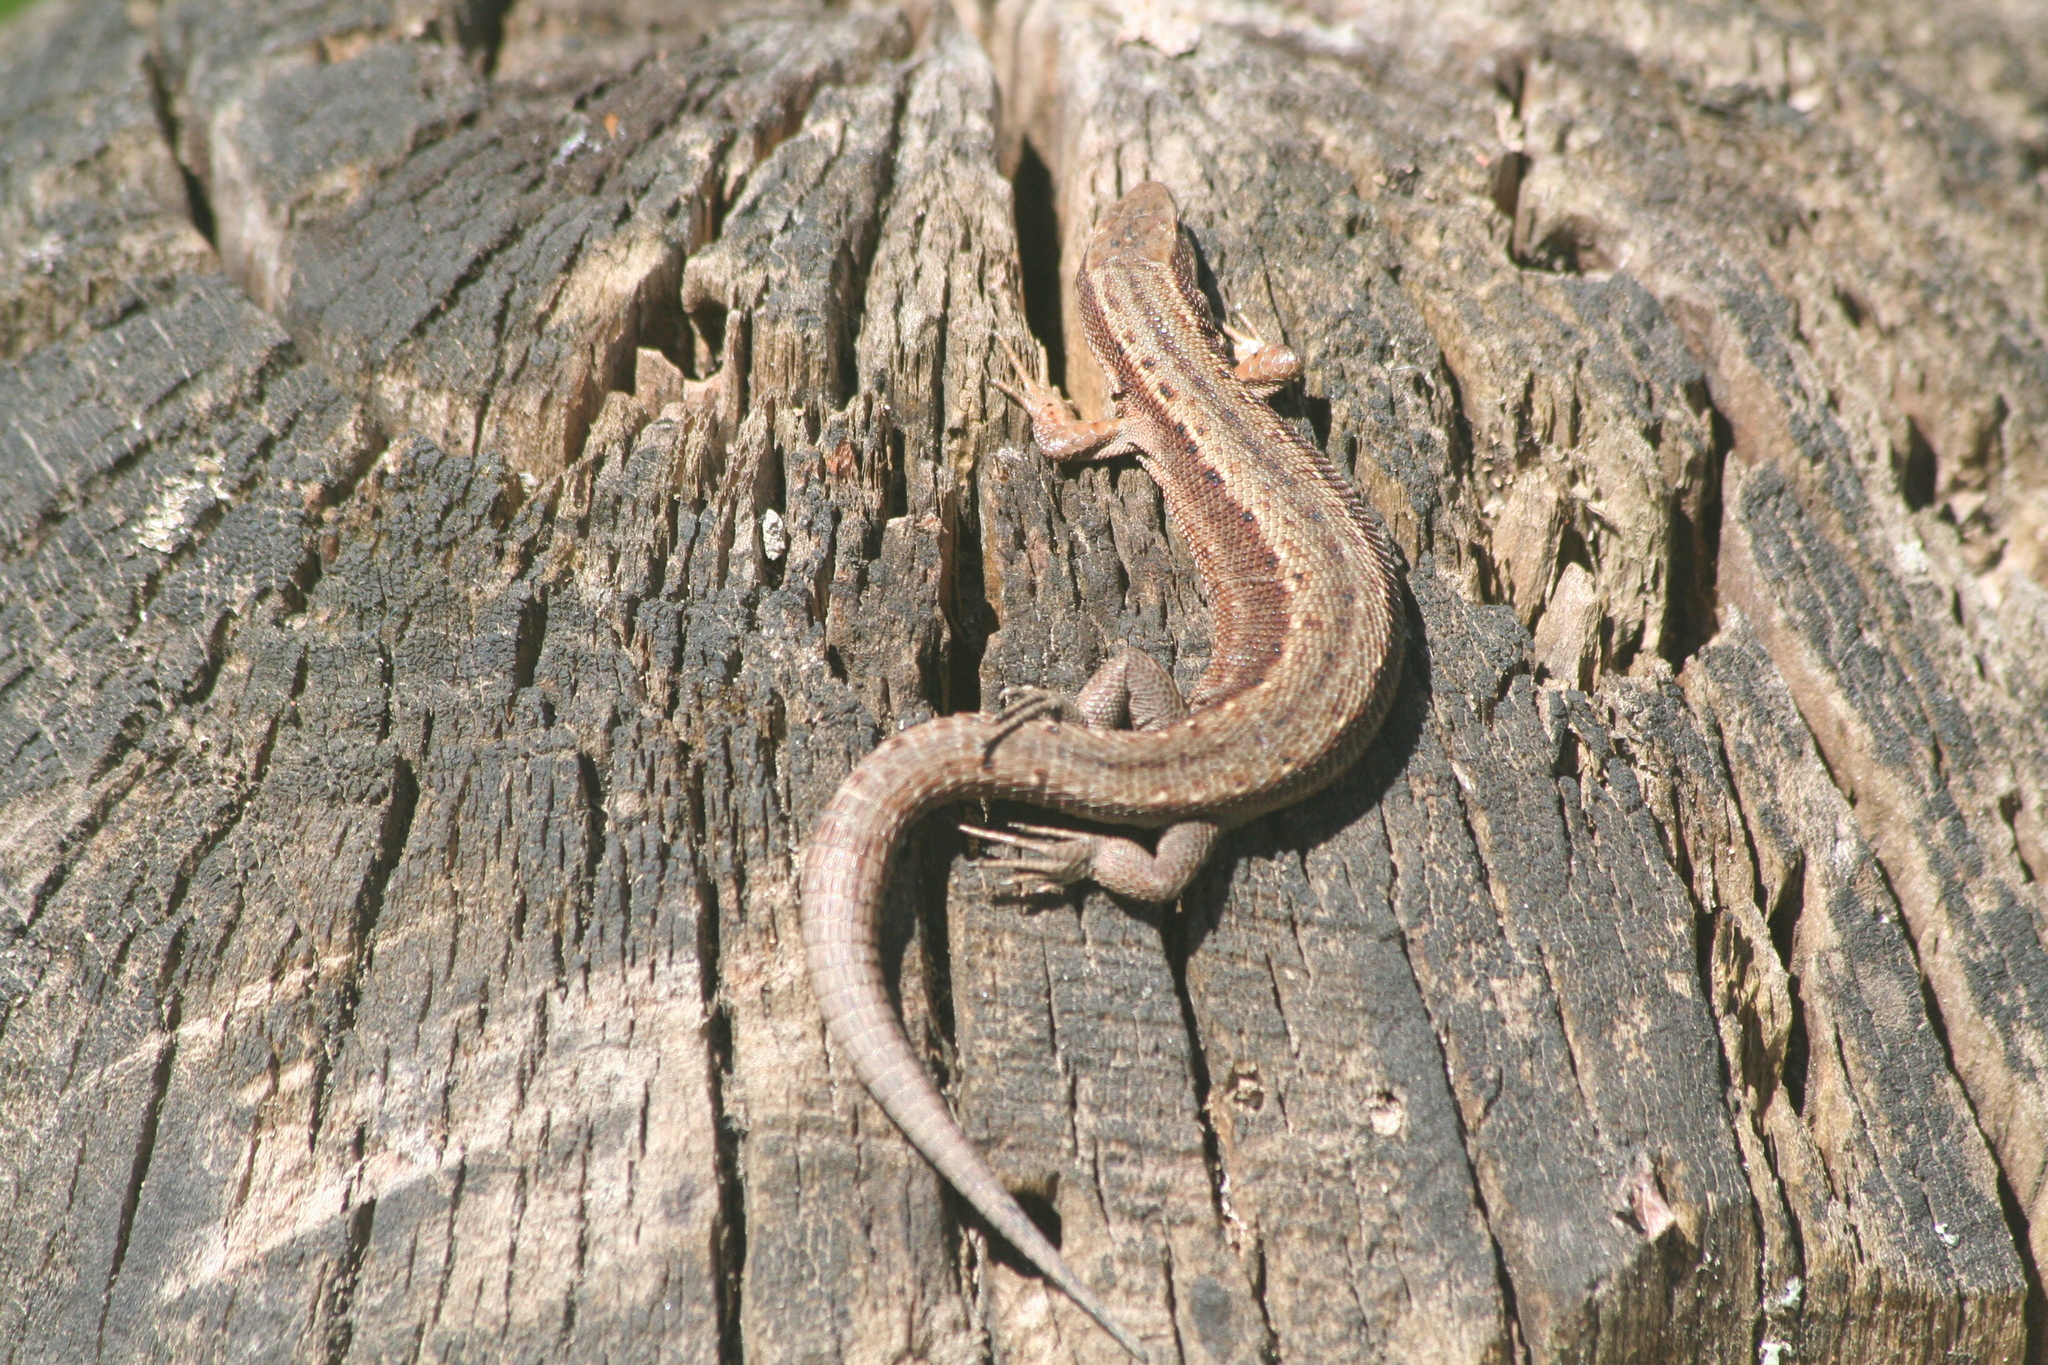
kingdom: Animalia
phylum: Chordata
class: Squamata
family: Lacertidae
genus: Zootoca
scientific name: Zootoca vivipara
